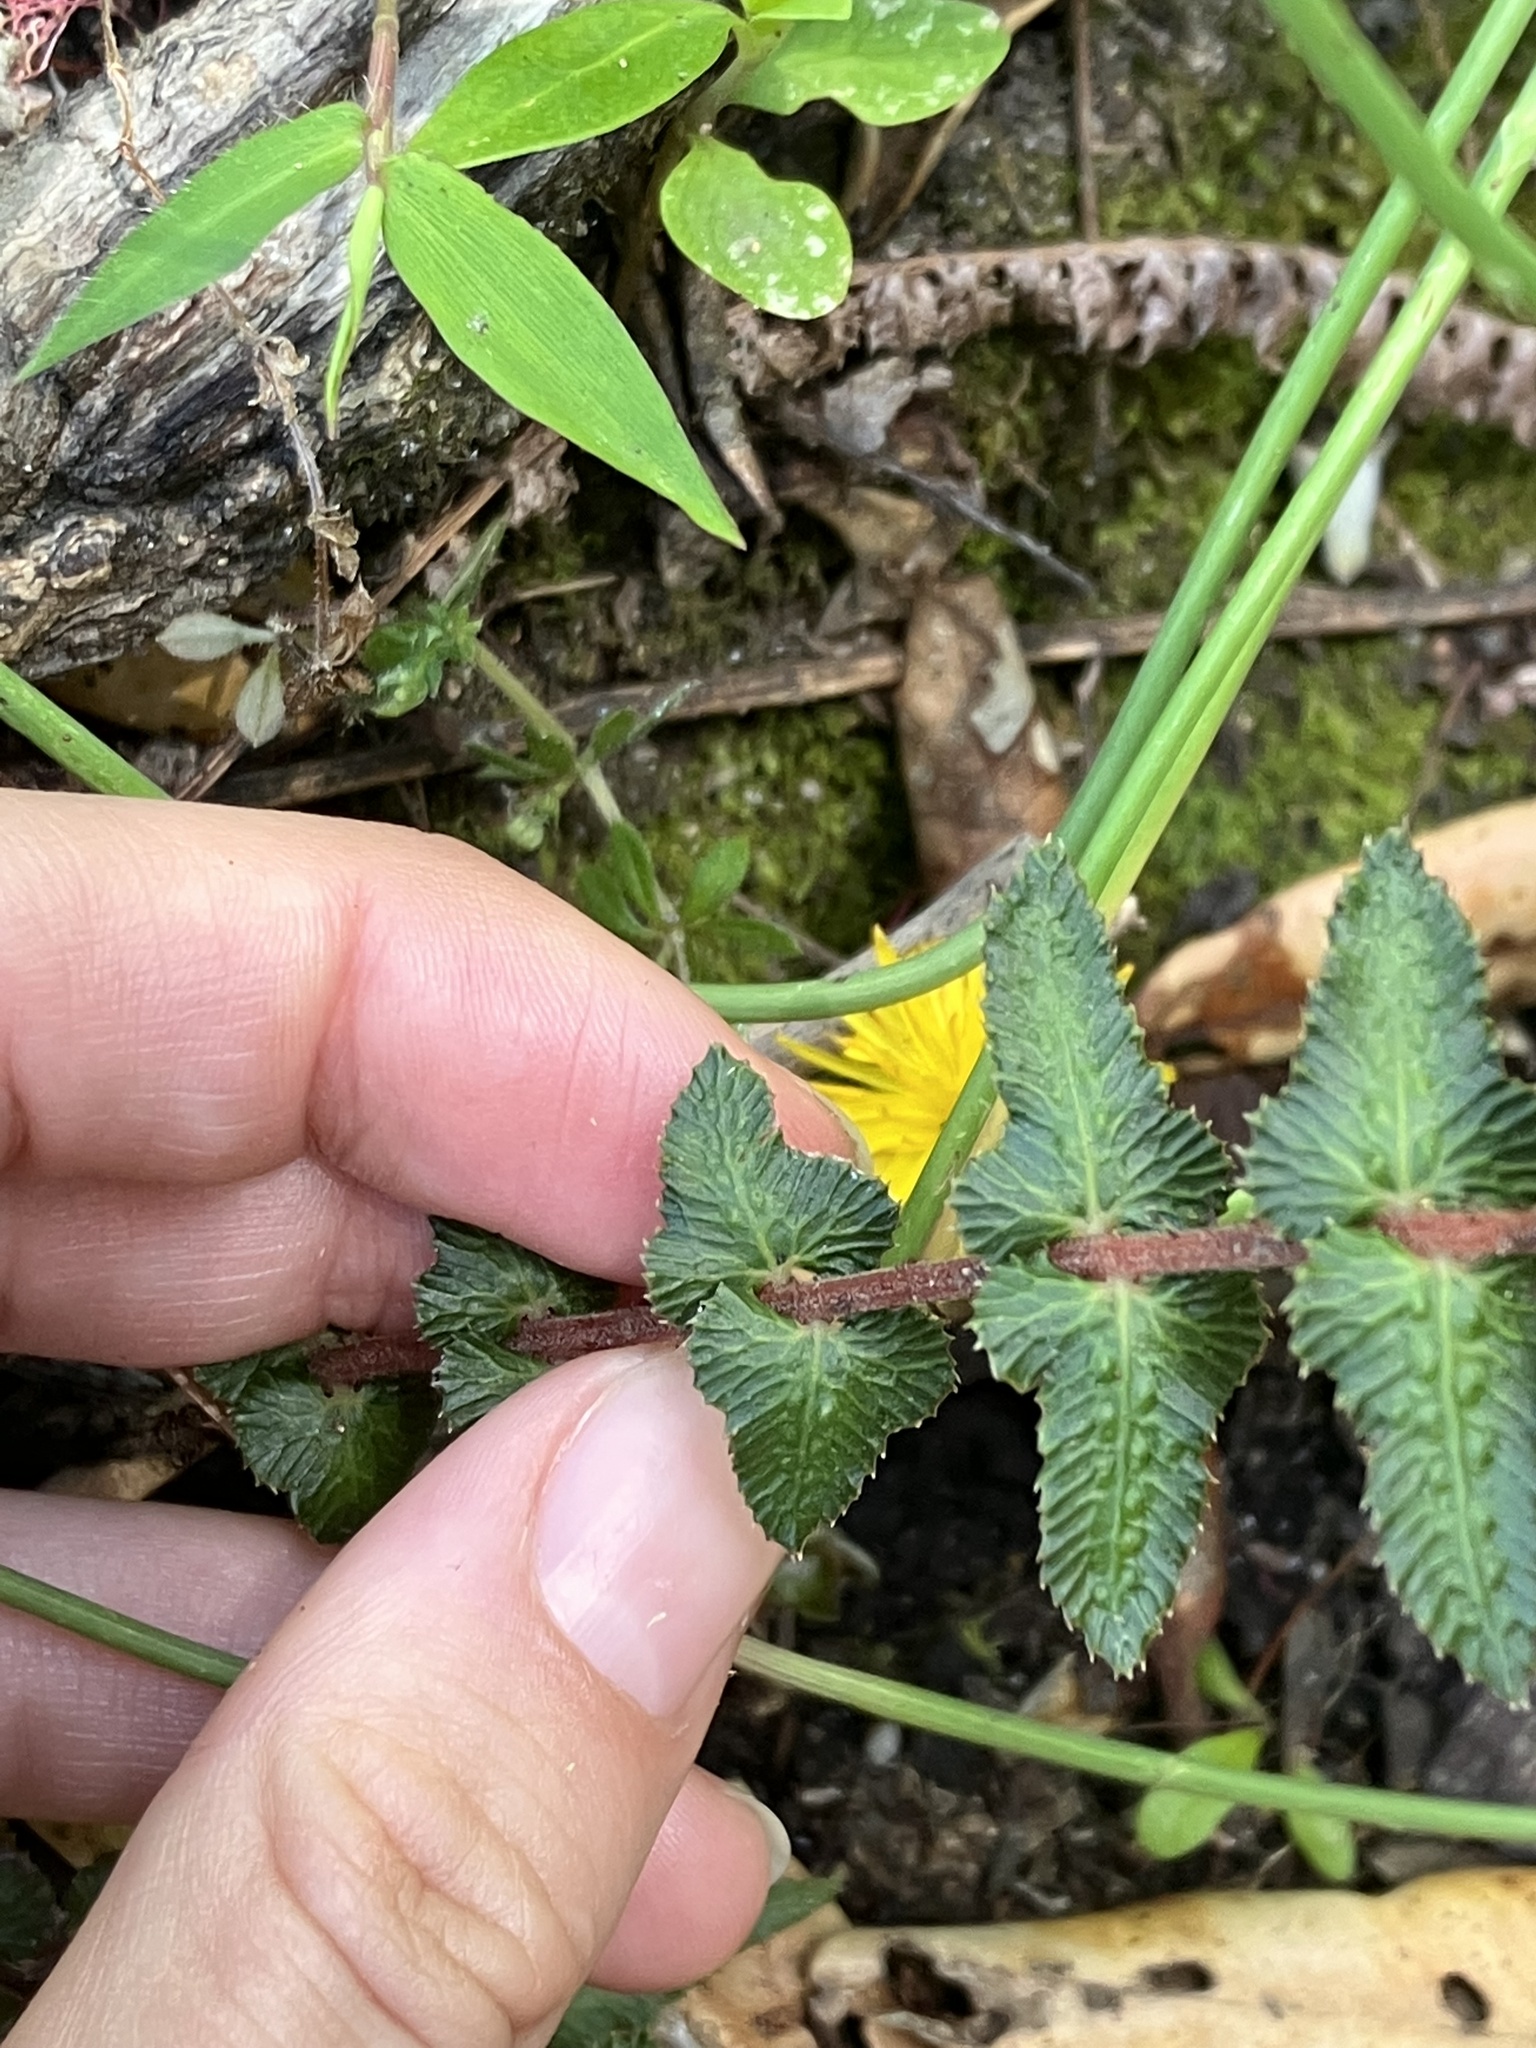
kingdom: Plantae
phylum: Tracheophyta
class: Polypodiopsida
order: Polypodiales
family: Blechnaceae
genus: Doodia
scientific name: Doodia australis
